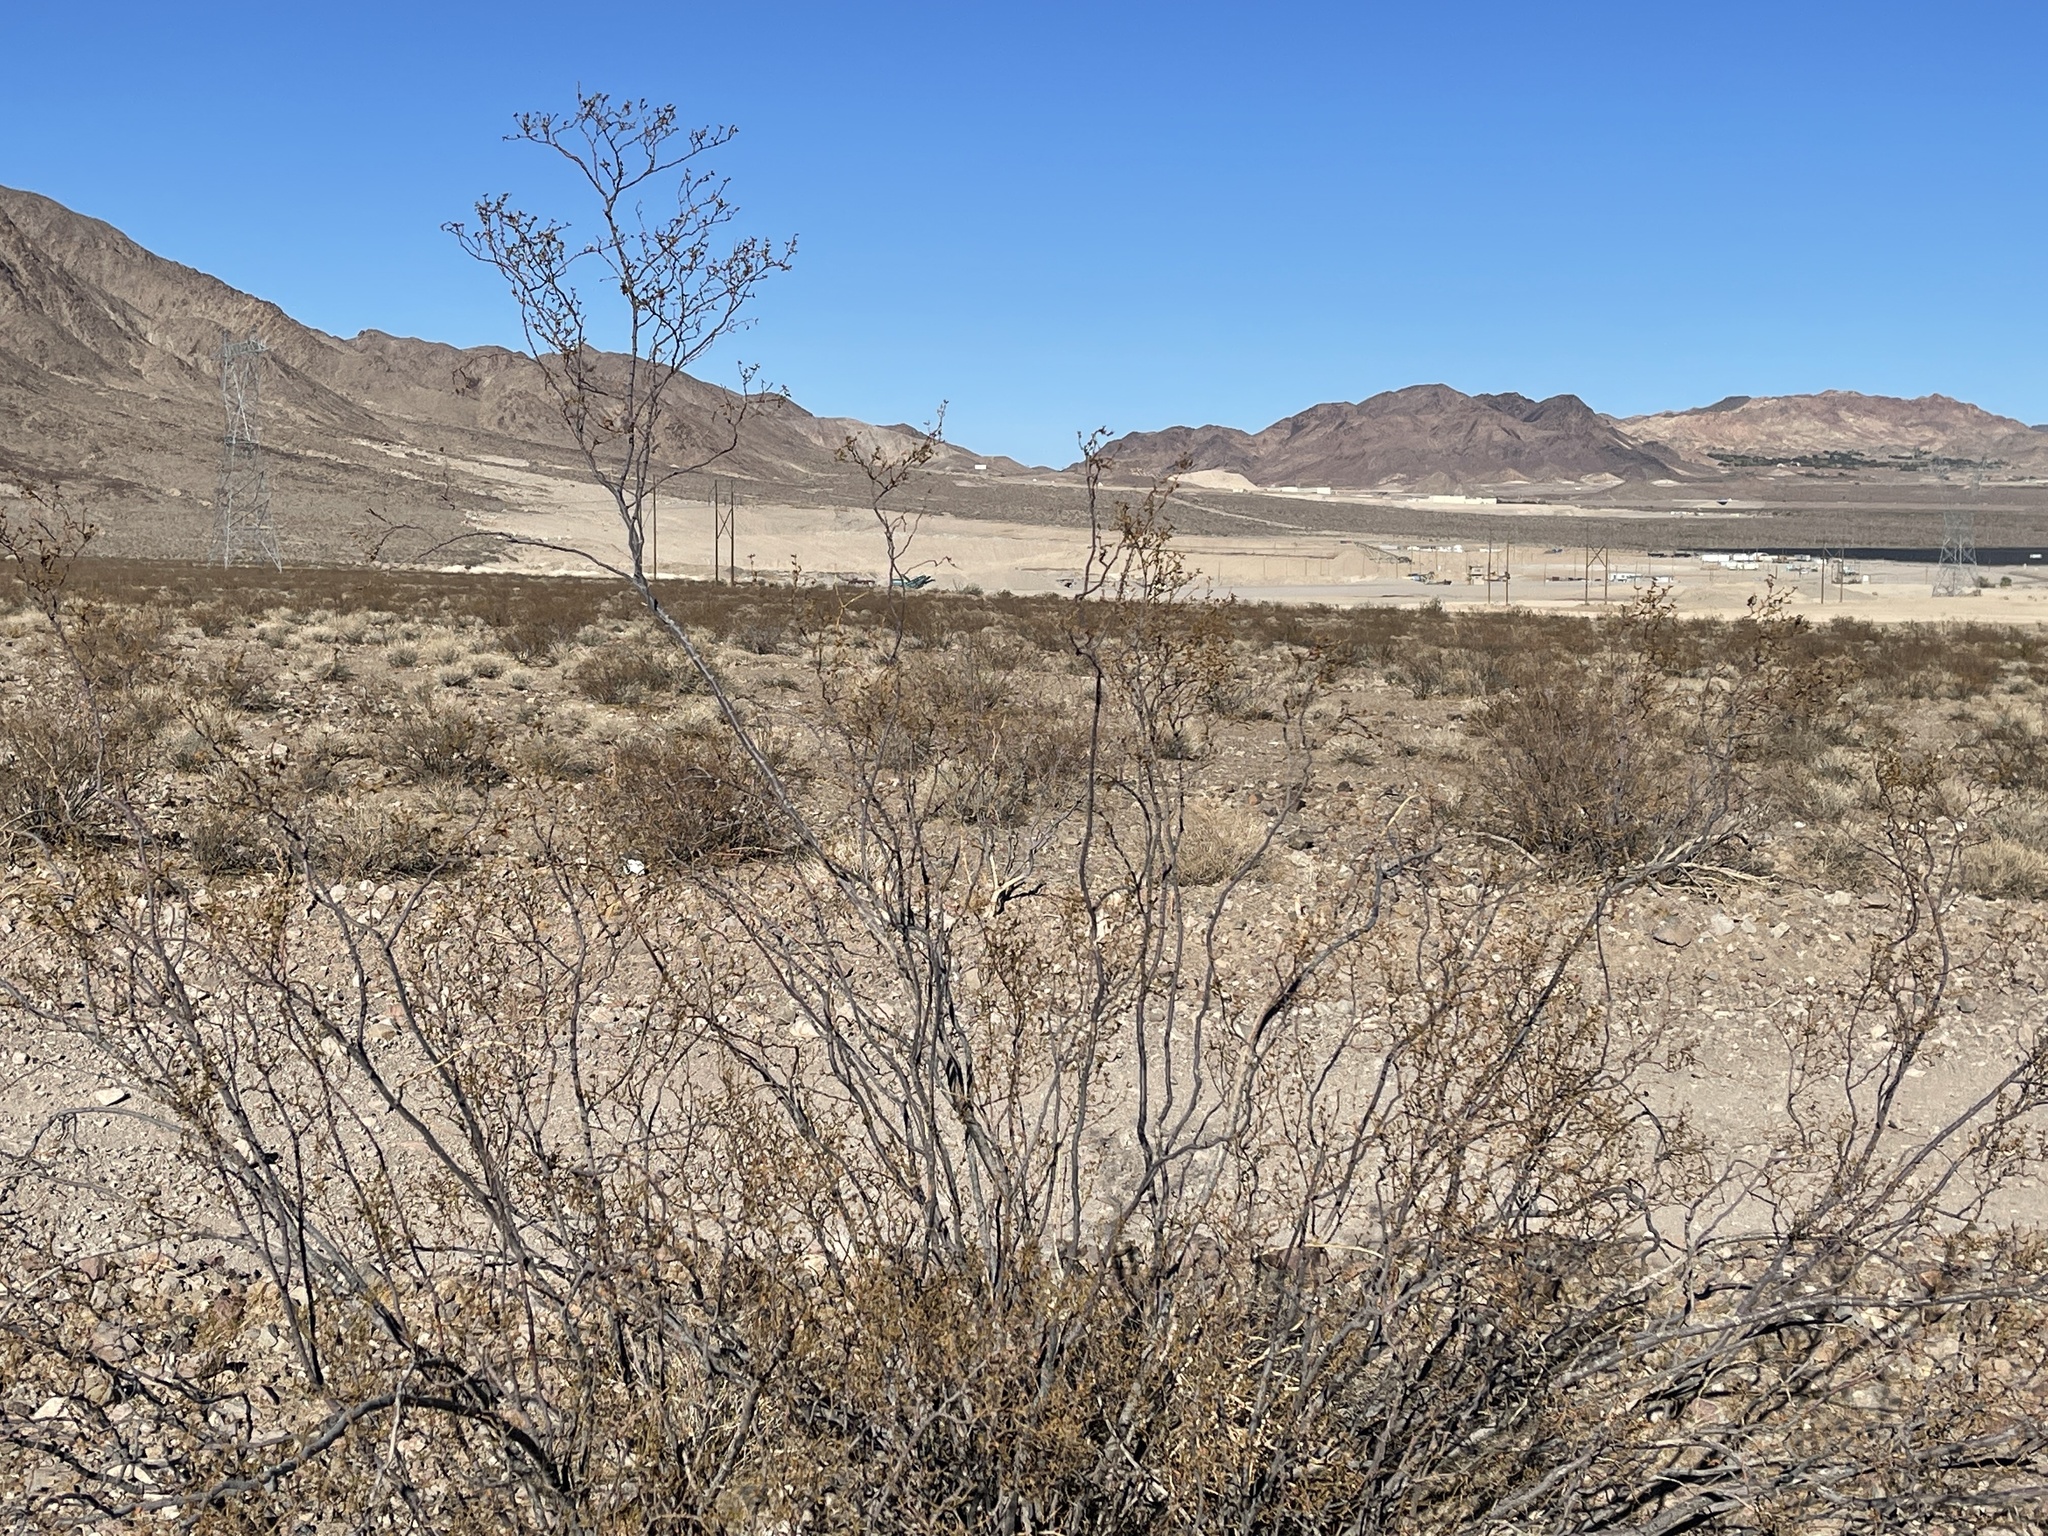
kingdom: Plantae
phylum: Tracheophyta
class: Magnoliopsida
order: Zygophyllales
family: Zygophyllaceae
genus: Larrea
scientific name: Larrea tridentata
